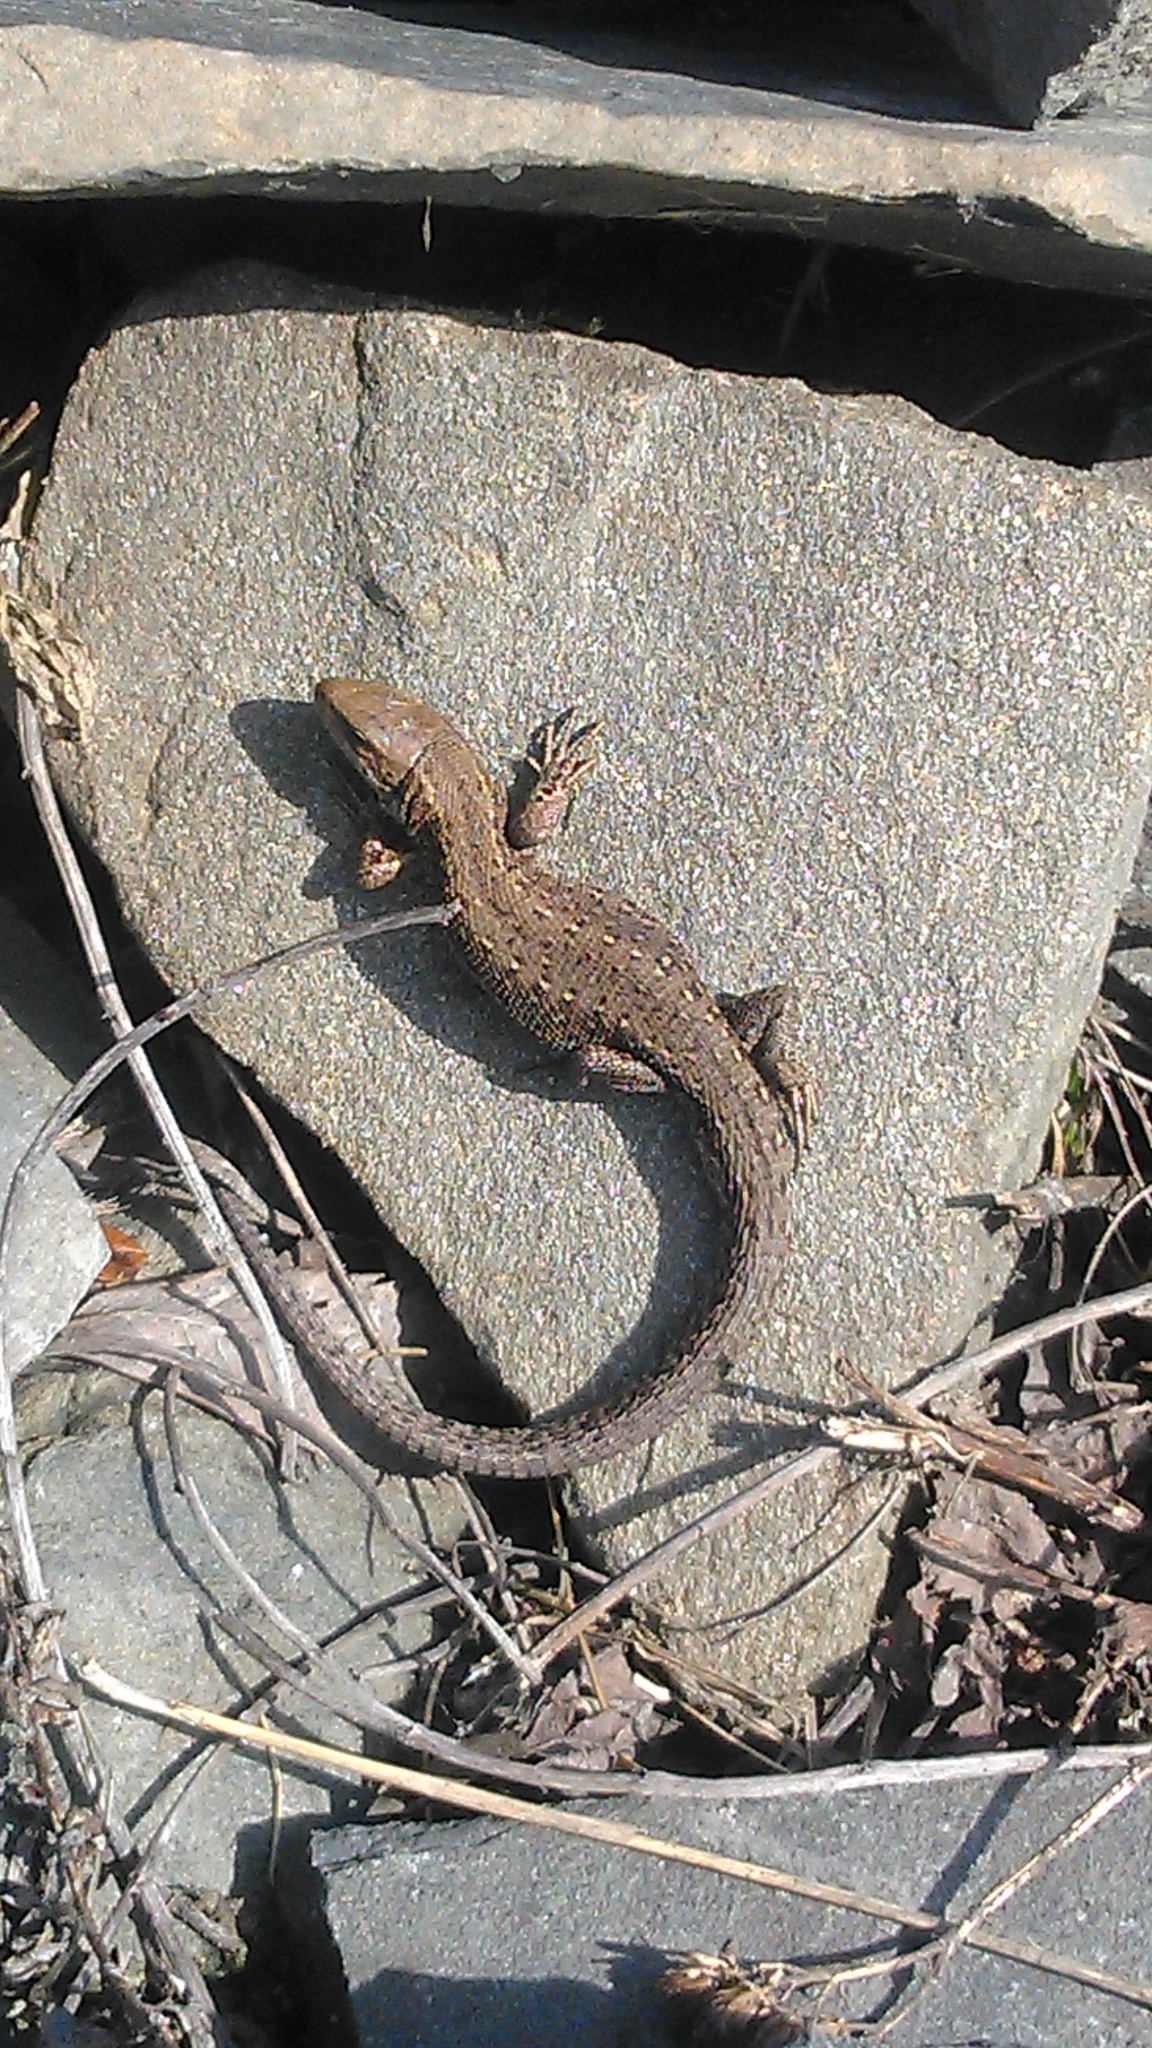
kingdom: Animalia
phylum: Chordata
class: Squamata
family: Lacertidae
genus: Zootoca
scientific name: Zootoca vivipara
